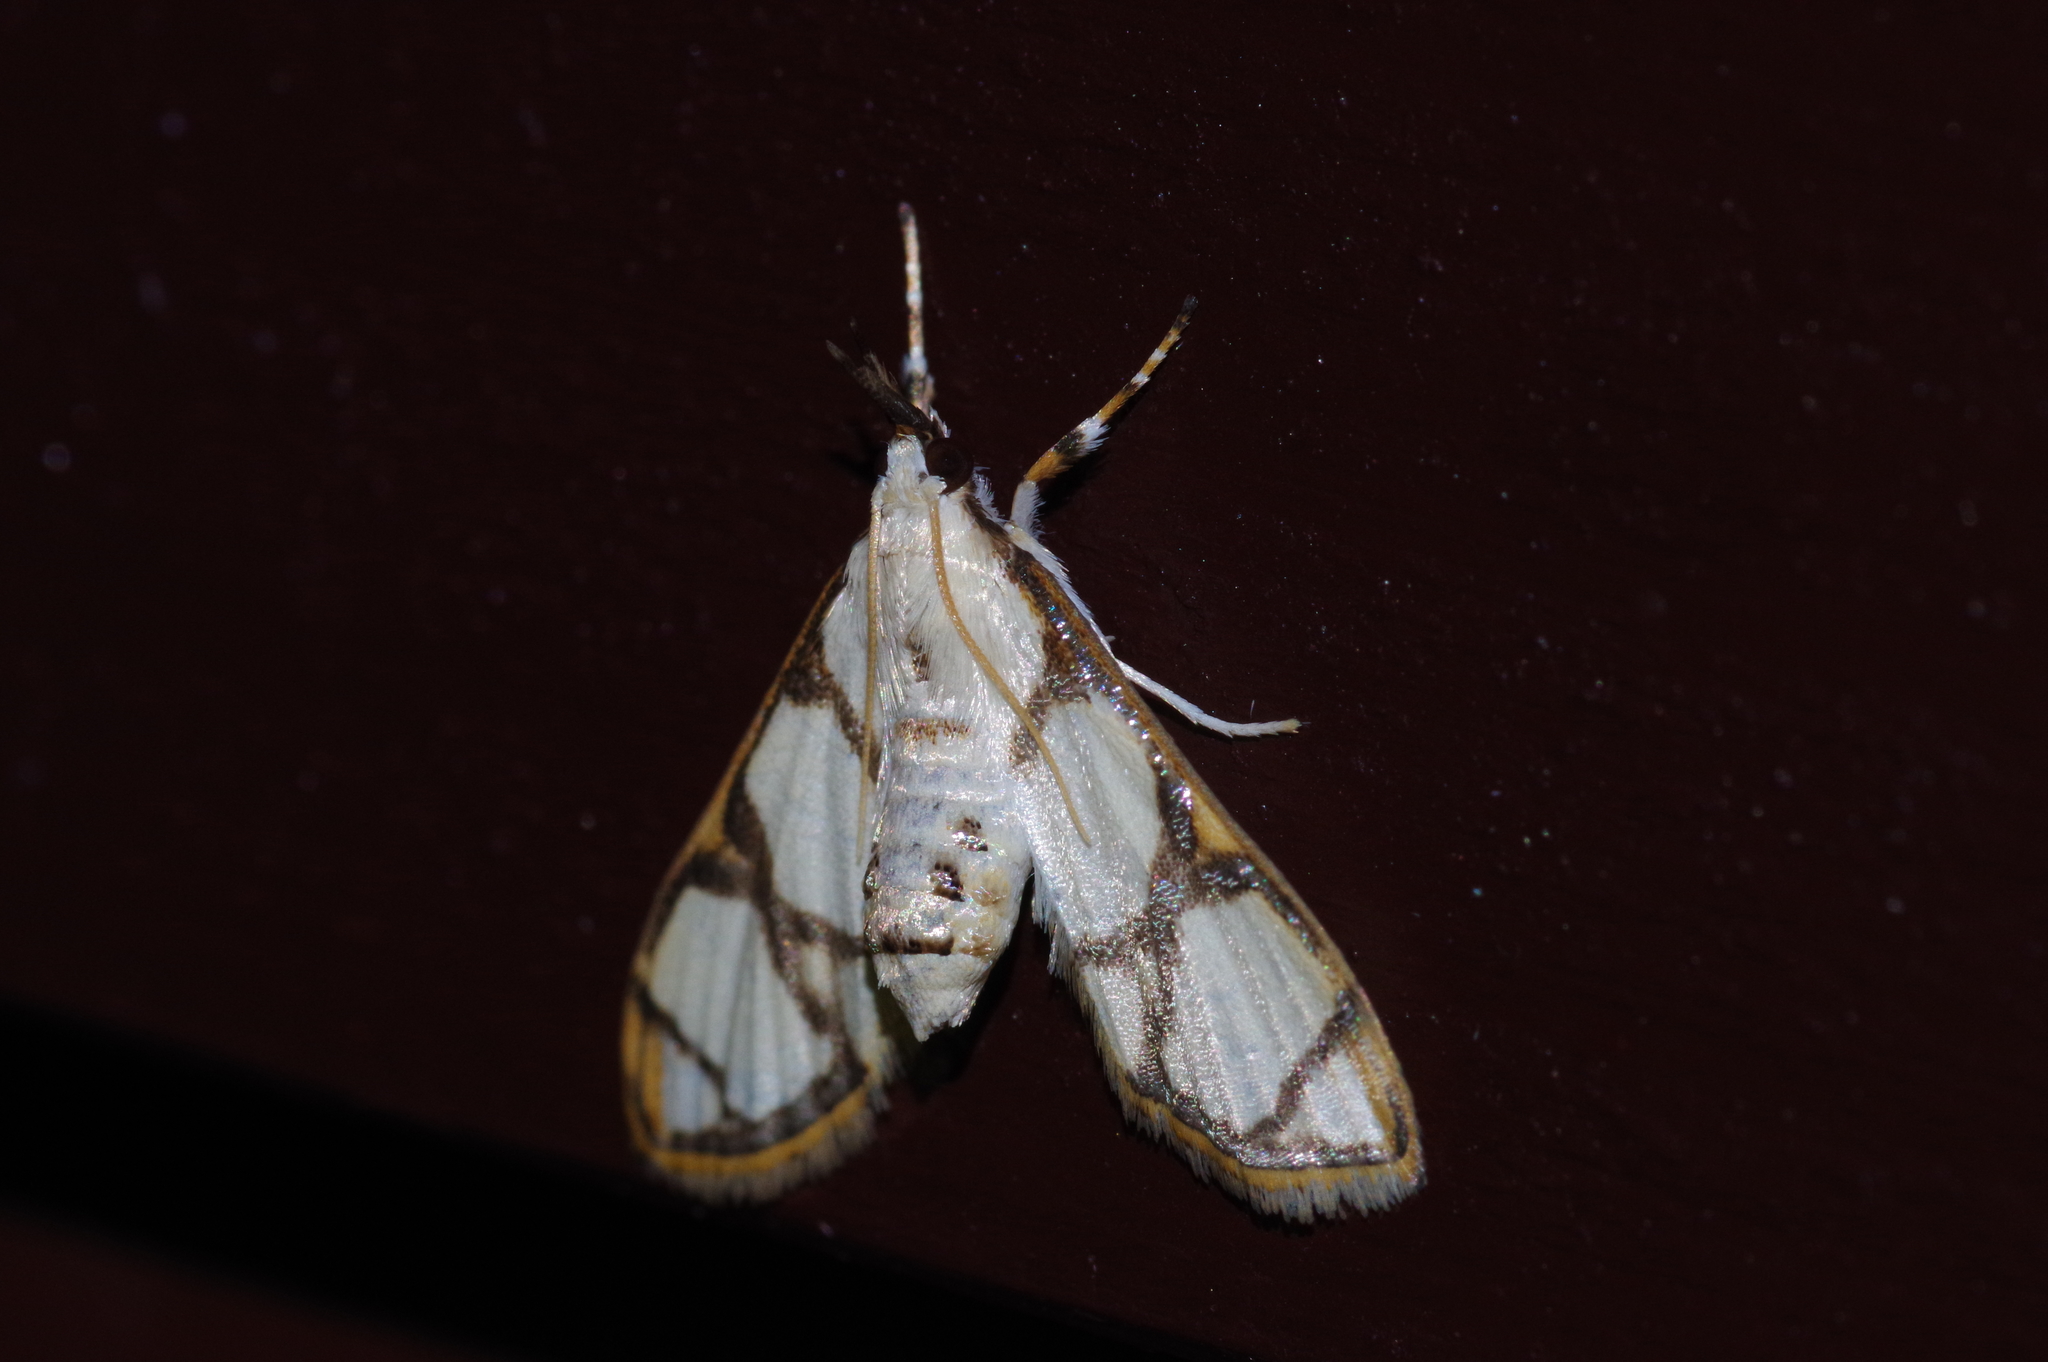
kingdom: Animalia
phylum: Arthropoda
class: Insecta
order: Lepidoptera
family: Crambidae
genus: Cirrhochrista
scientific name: Cirrhochrista kosemponialis
